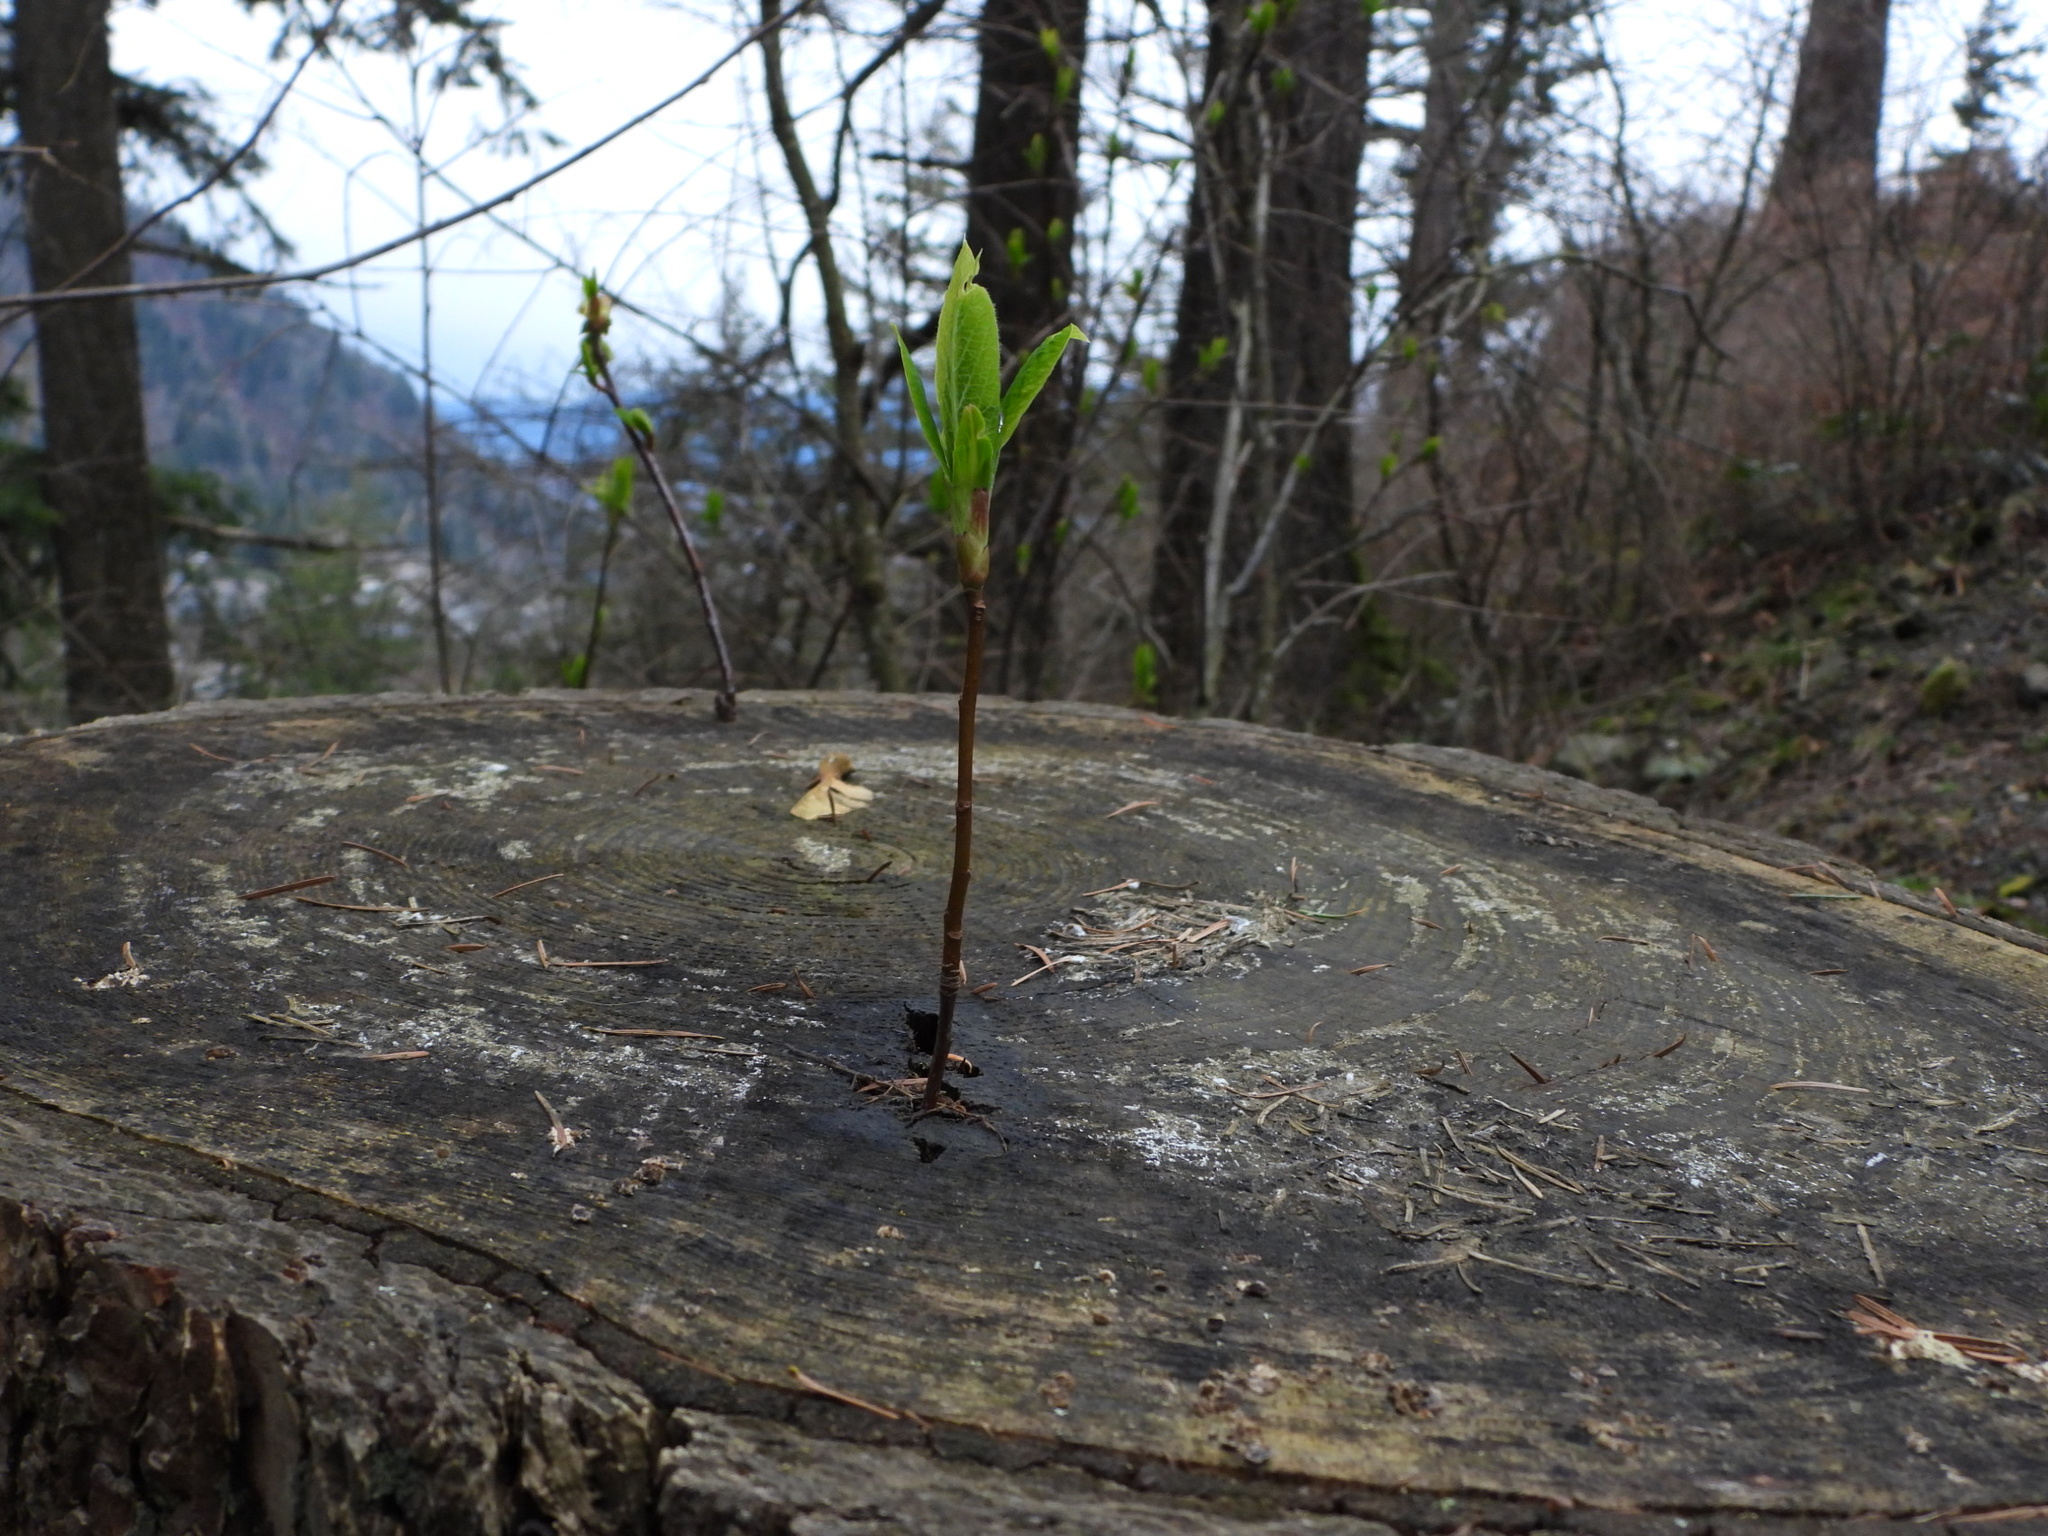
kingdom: Plantae
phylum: Tracheophyta
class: Magnoliopsida
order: Rosales
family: Rosaceae
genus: Oemleria
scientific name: Oemleria cerasiformis
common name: Osoberry
